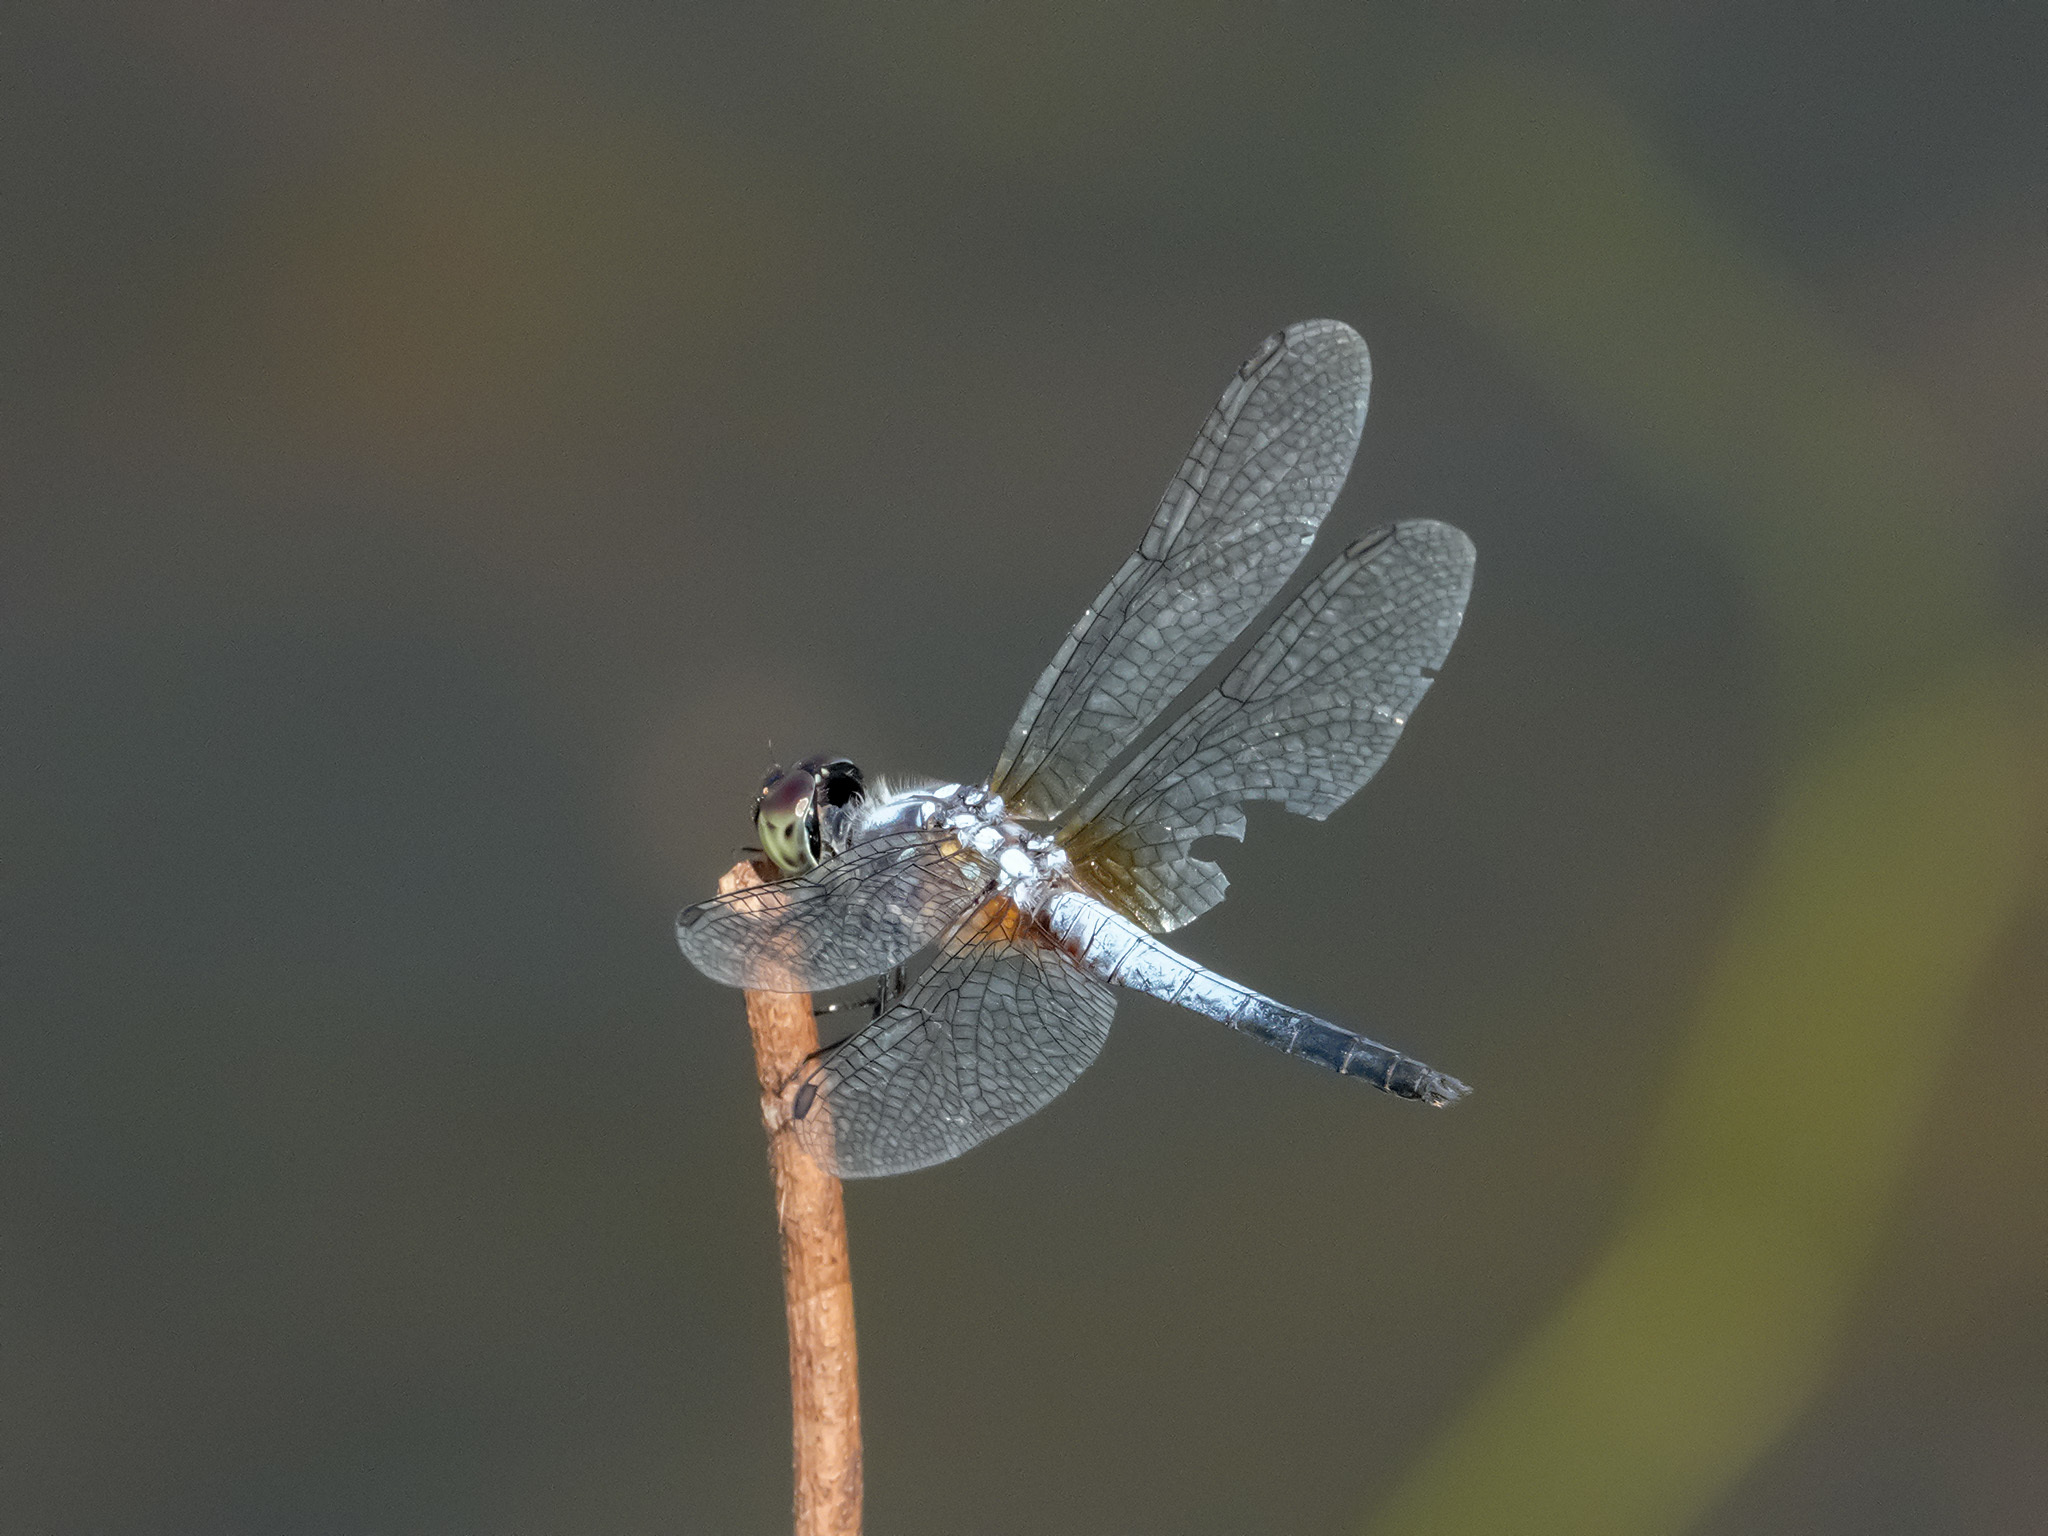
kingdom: Animalia
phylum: Arthropoda
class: Insecta
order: Odonata
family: Libellulidae
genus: Brachydiplax
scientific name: Brachydiplax chalybea
